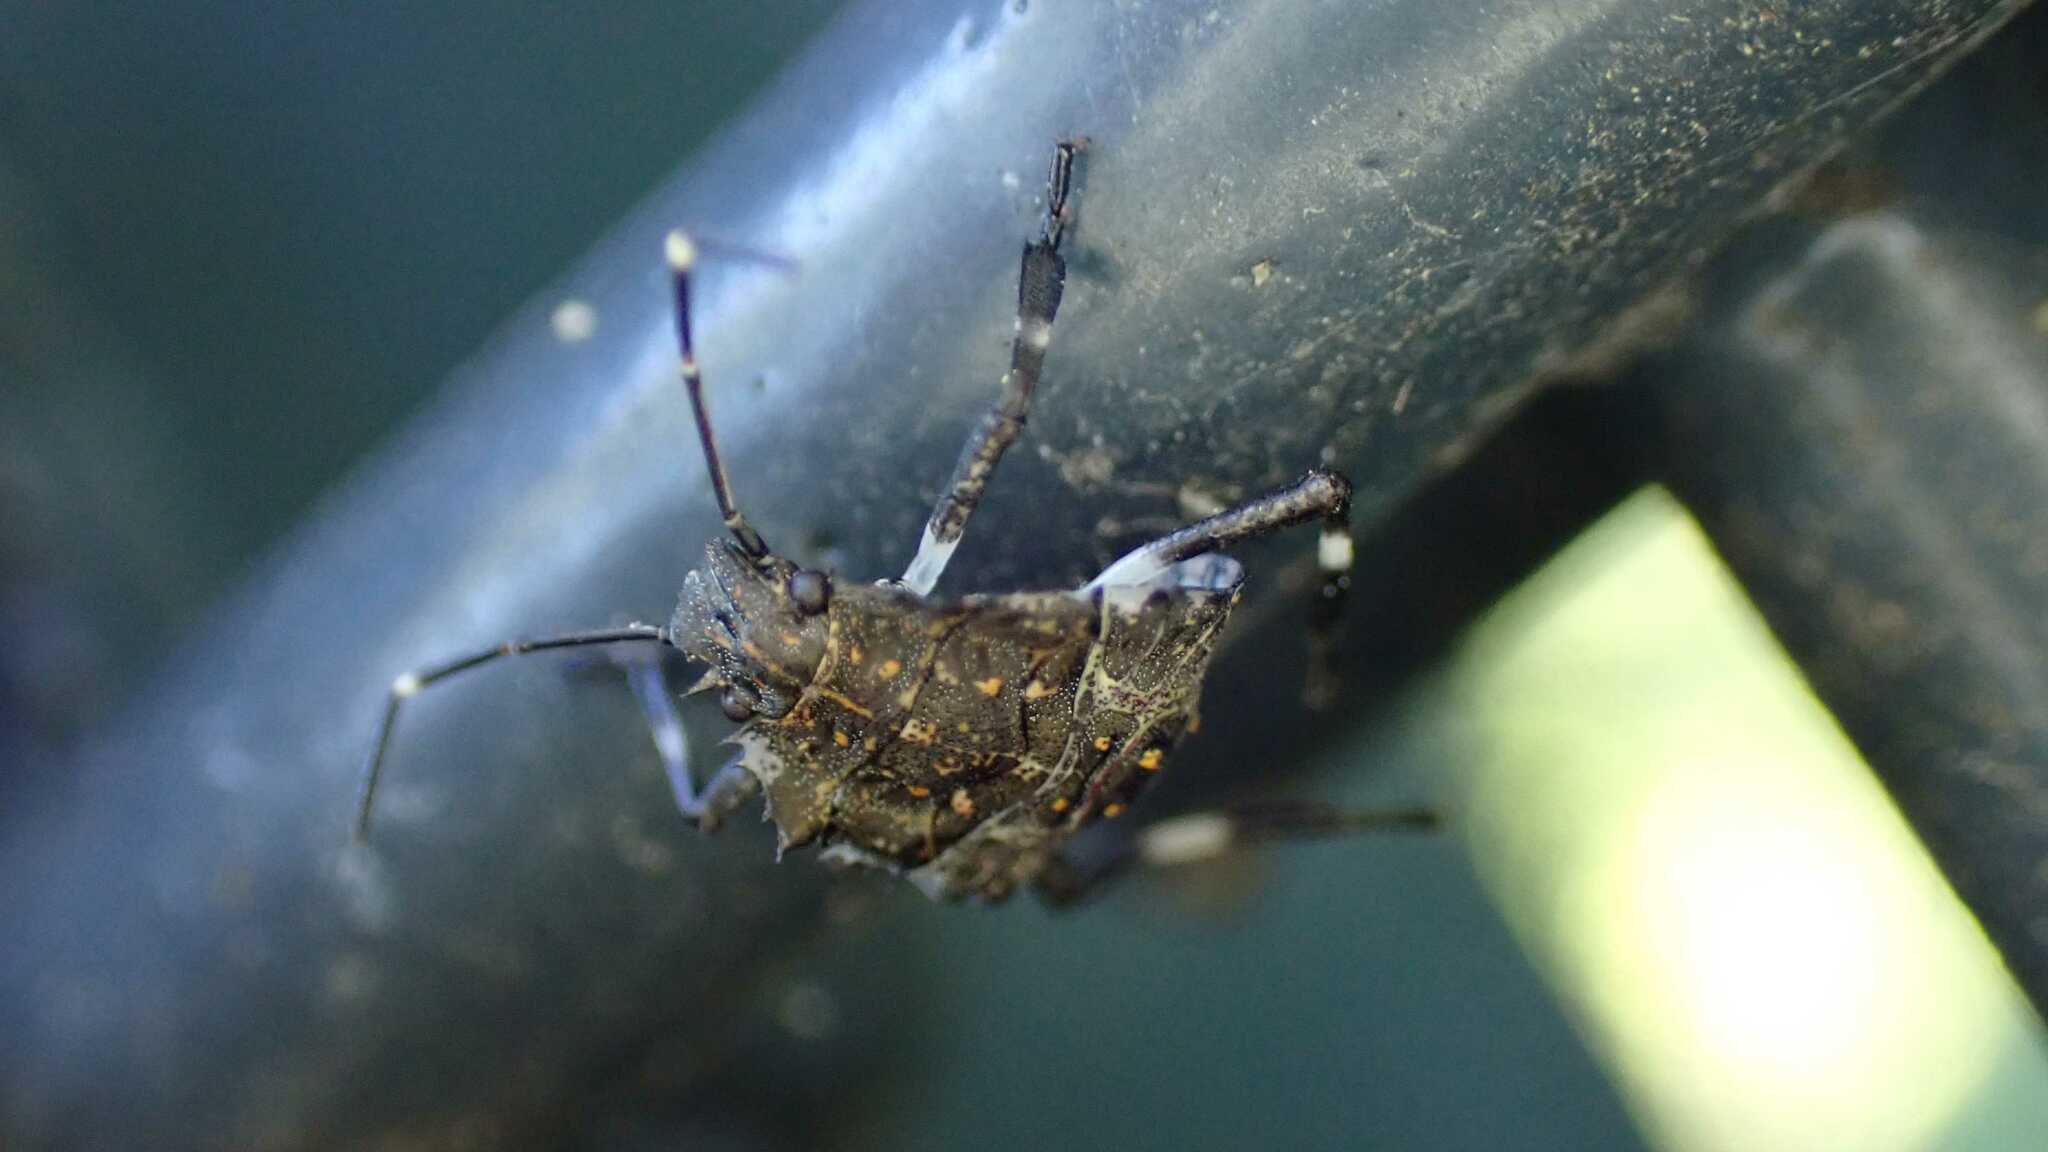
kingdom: Animalia
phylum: Arthropoda
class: Insecta
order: Hemiptera
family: Pentatomidae
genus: Halyomorpha
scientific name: Halyomorpha halys
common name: Brown marmorated stink bug
